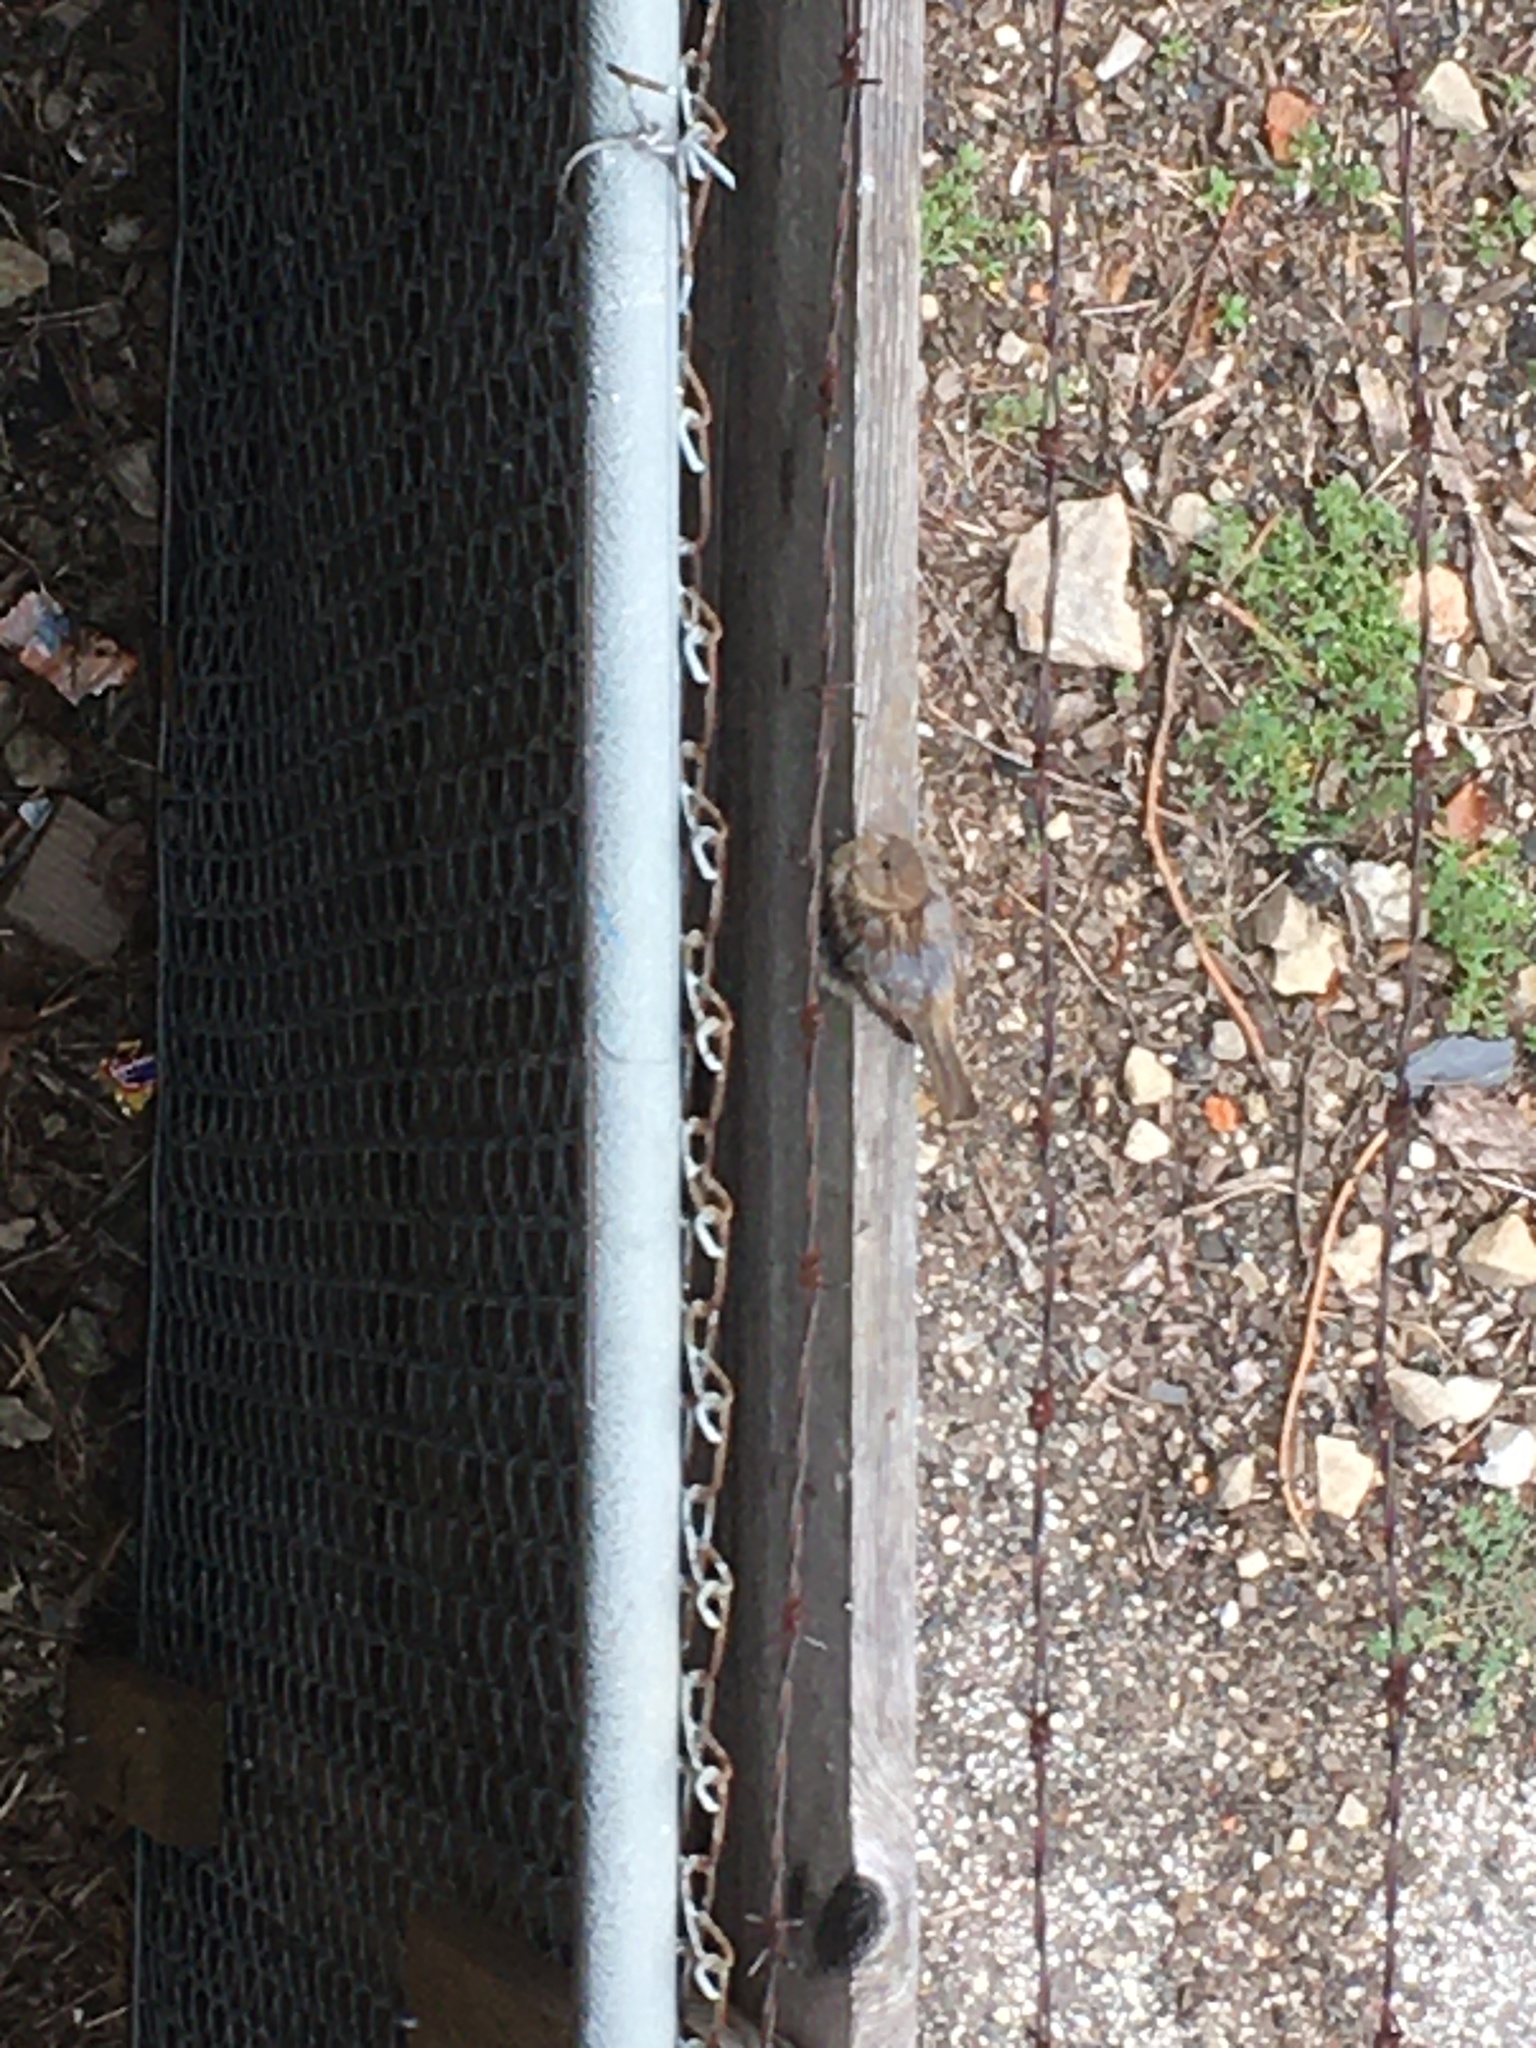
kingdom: Animalia
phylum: Chordata
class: Aves
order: Passeriformes
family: Passeridae
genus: Passer
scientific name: Passer domesticus
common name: House sparrow
